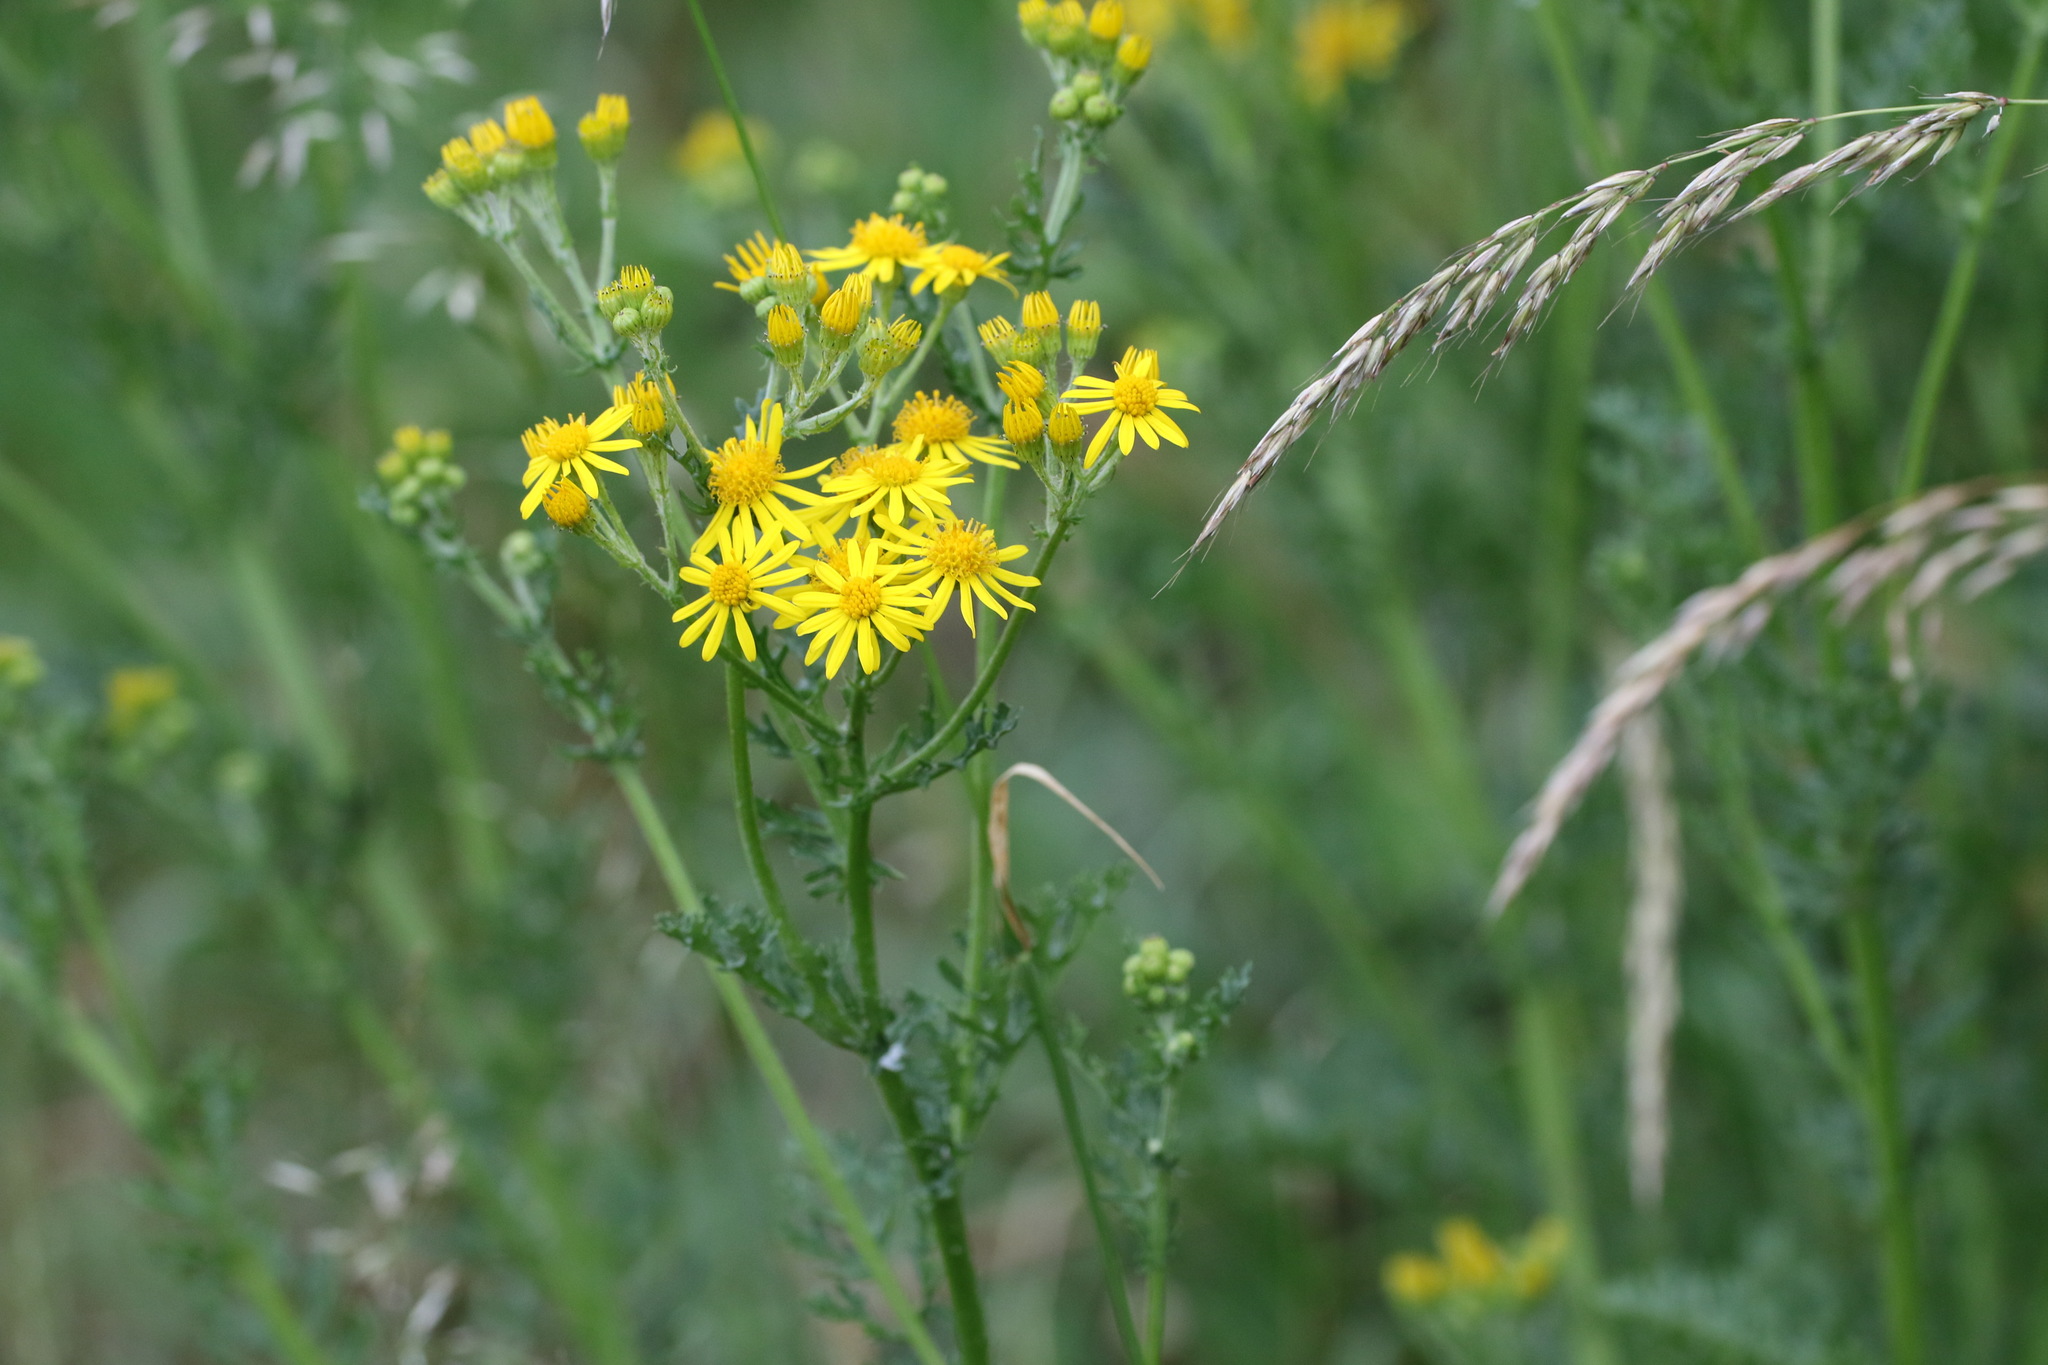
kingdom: Plantae
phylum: Tracheophyta
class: Magnoliopsida
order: Asterales
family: Asteraceae
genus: Jacobaea
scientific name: Jacobaea vulgaris
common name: Stinking willie
